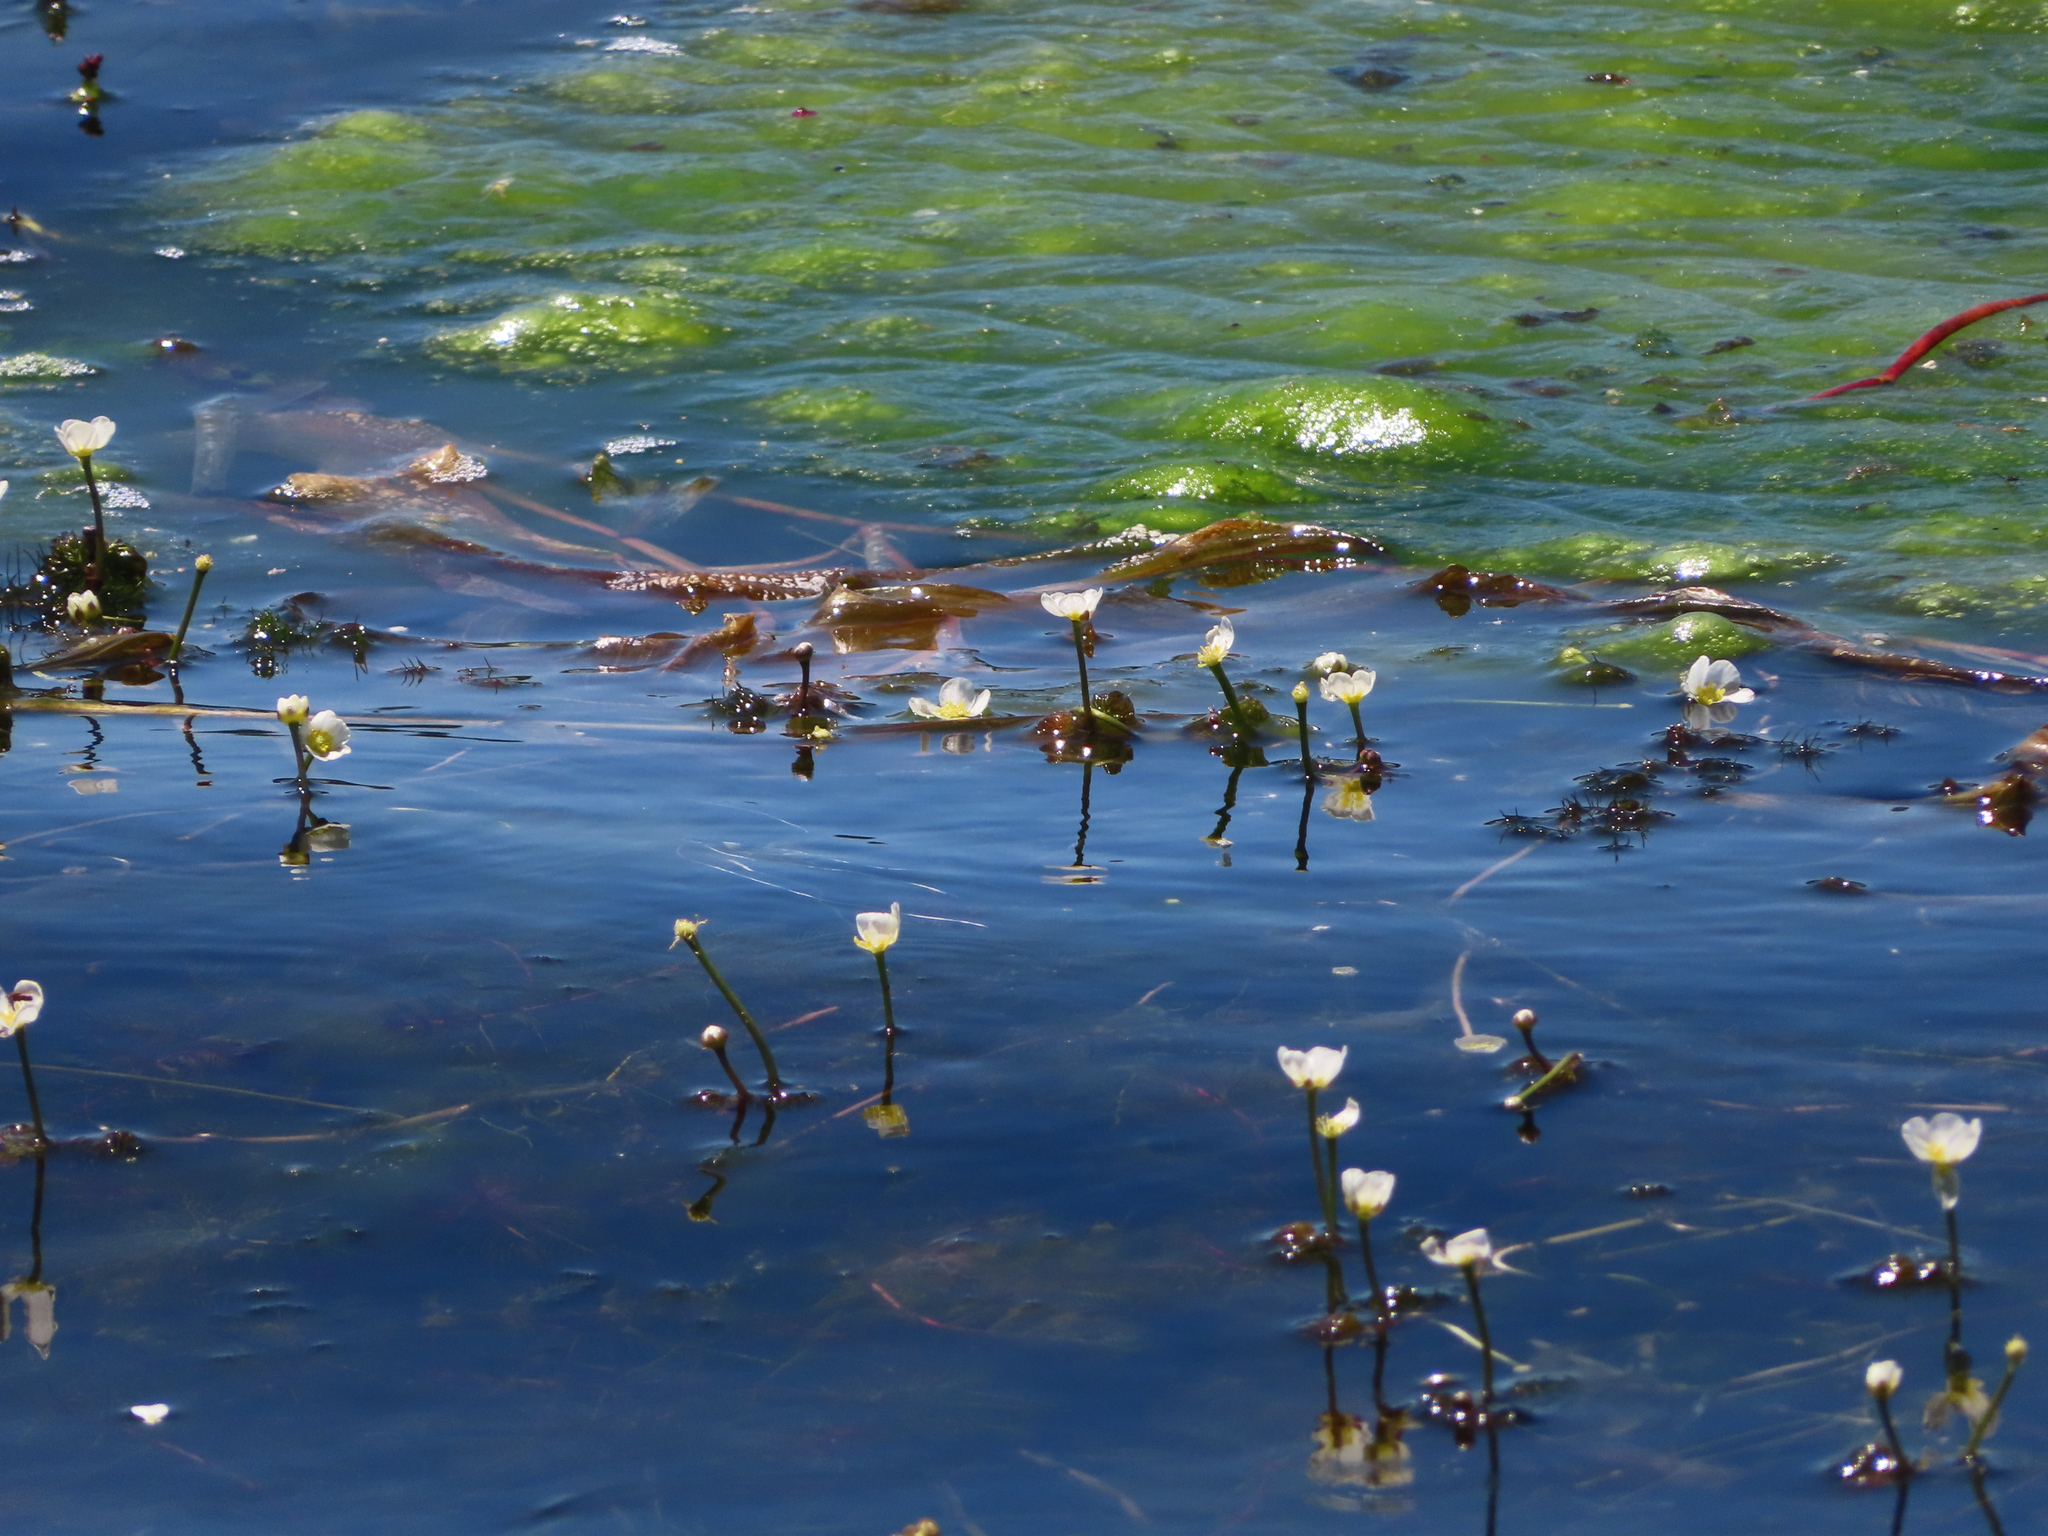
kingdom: Plantae
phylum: Tracheophyta
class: Magnoliopsida
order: Ranunculales
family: Ranunculaceae
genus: Ranunculus
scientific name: Ranunculus aquatilis
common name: Common water-crowfoot
